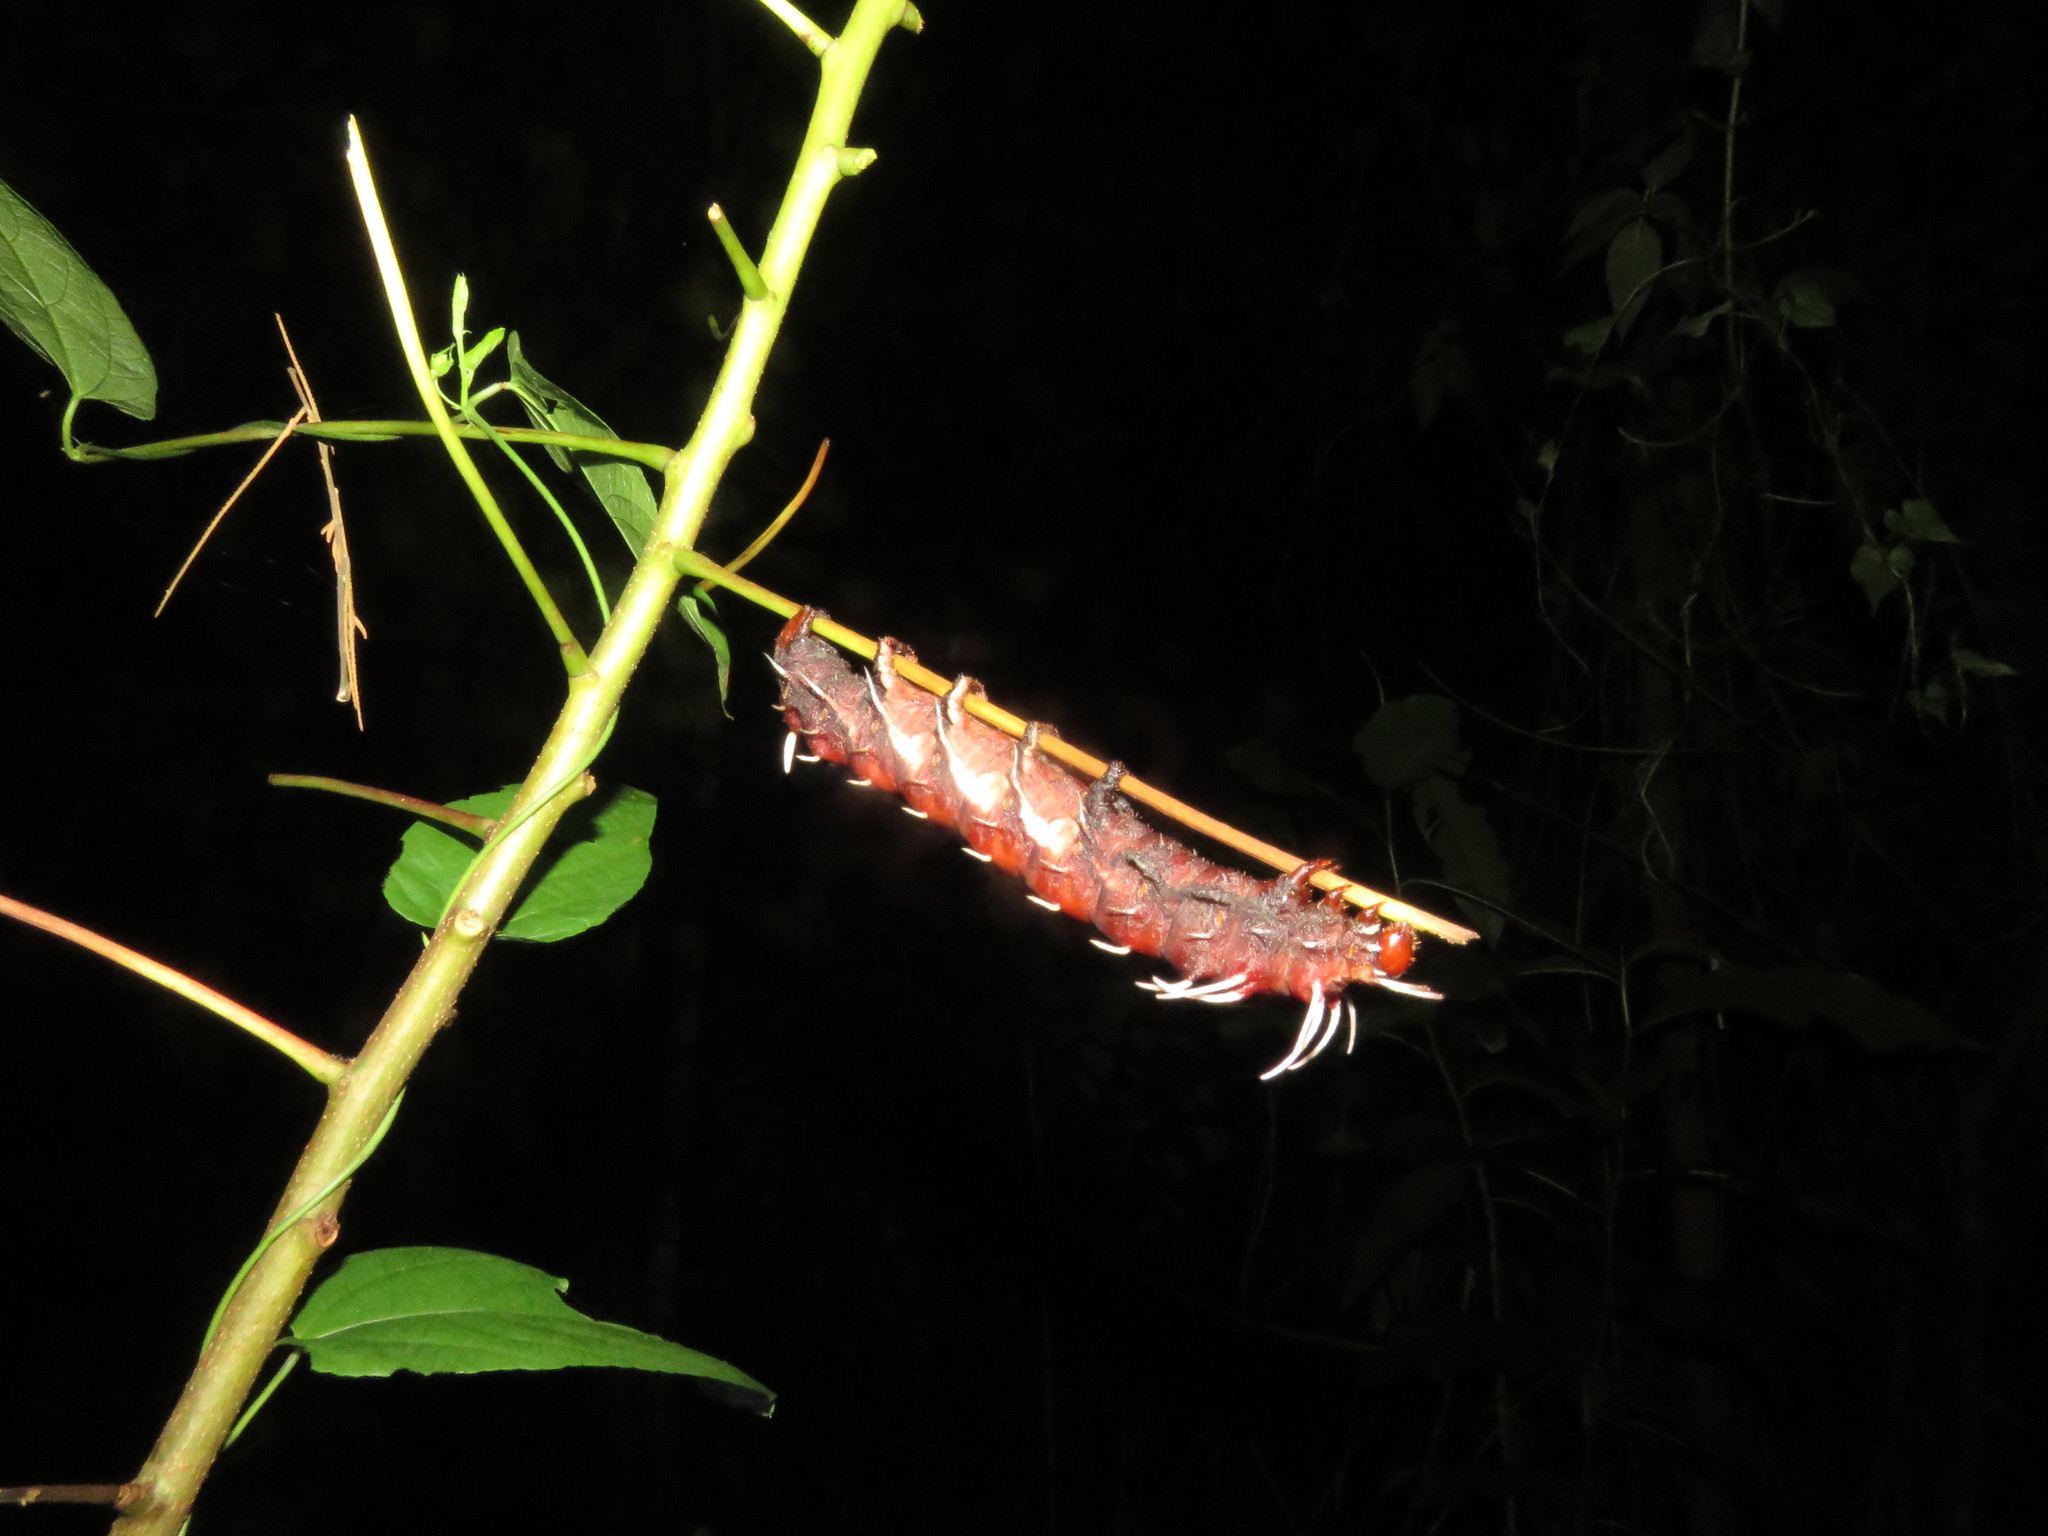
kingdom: Animalia
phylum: Arthropoda
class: Insecta
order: Lepidoptera
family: Saturniidae
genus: Citheronia
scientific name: Citheronia phoronea
